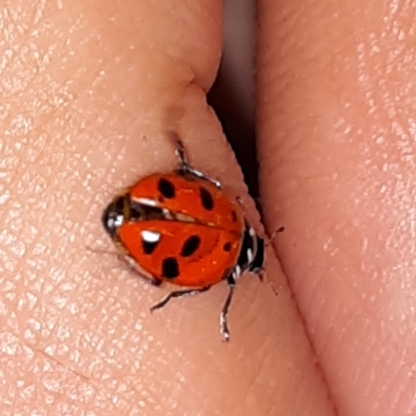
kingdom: Animalia
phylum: Arthropoda
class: Insecta
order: Coleoptera
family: Coccinellidae
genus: Hippodamia
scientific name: Hippodamia convergens
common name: Convergent lady beetle
